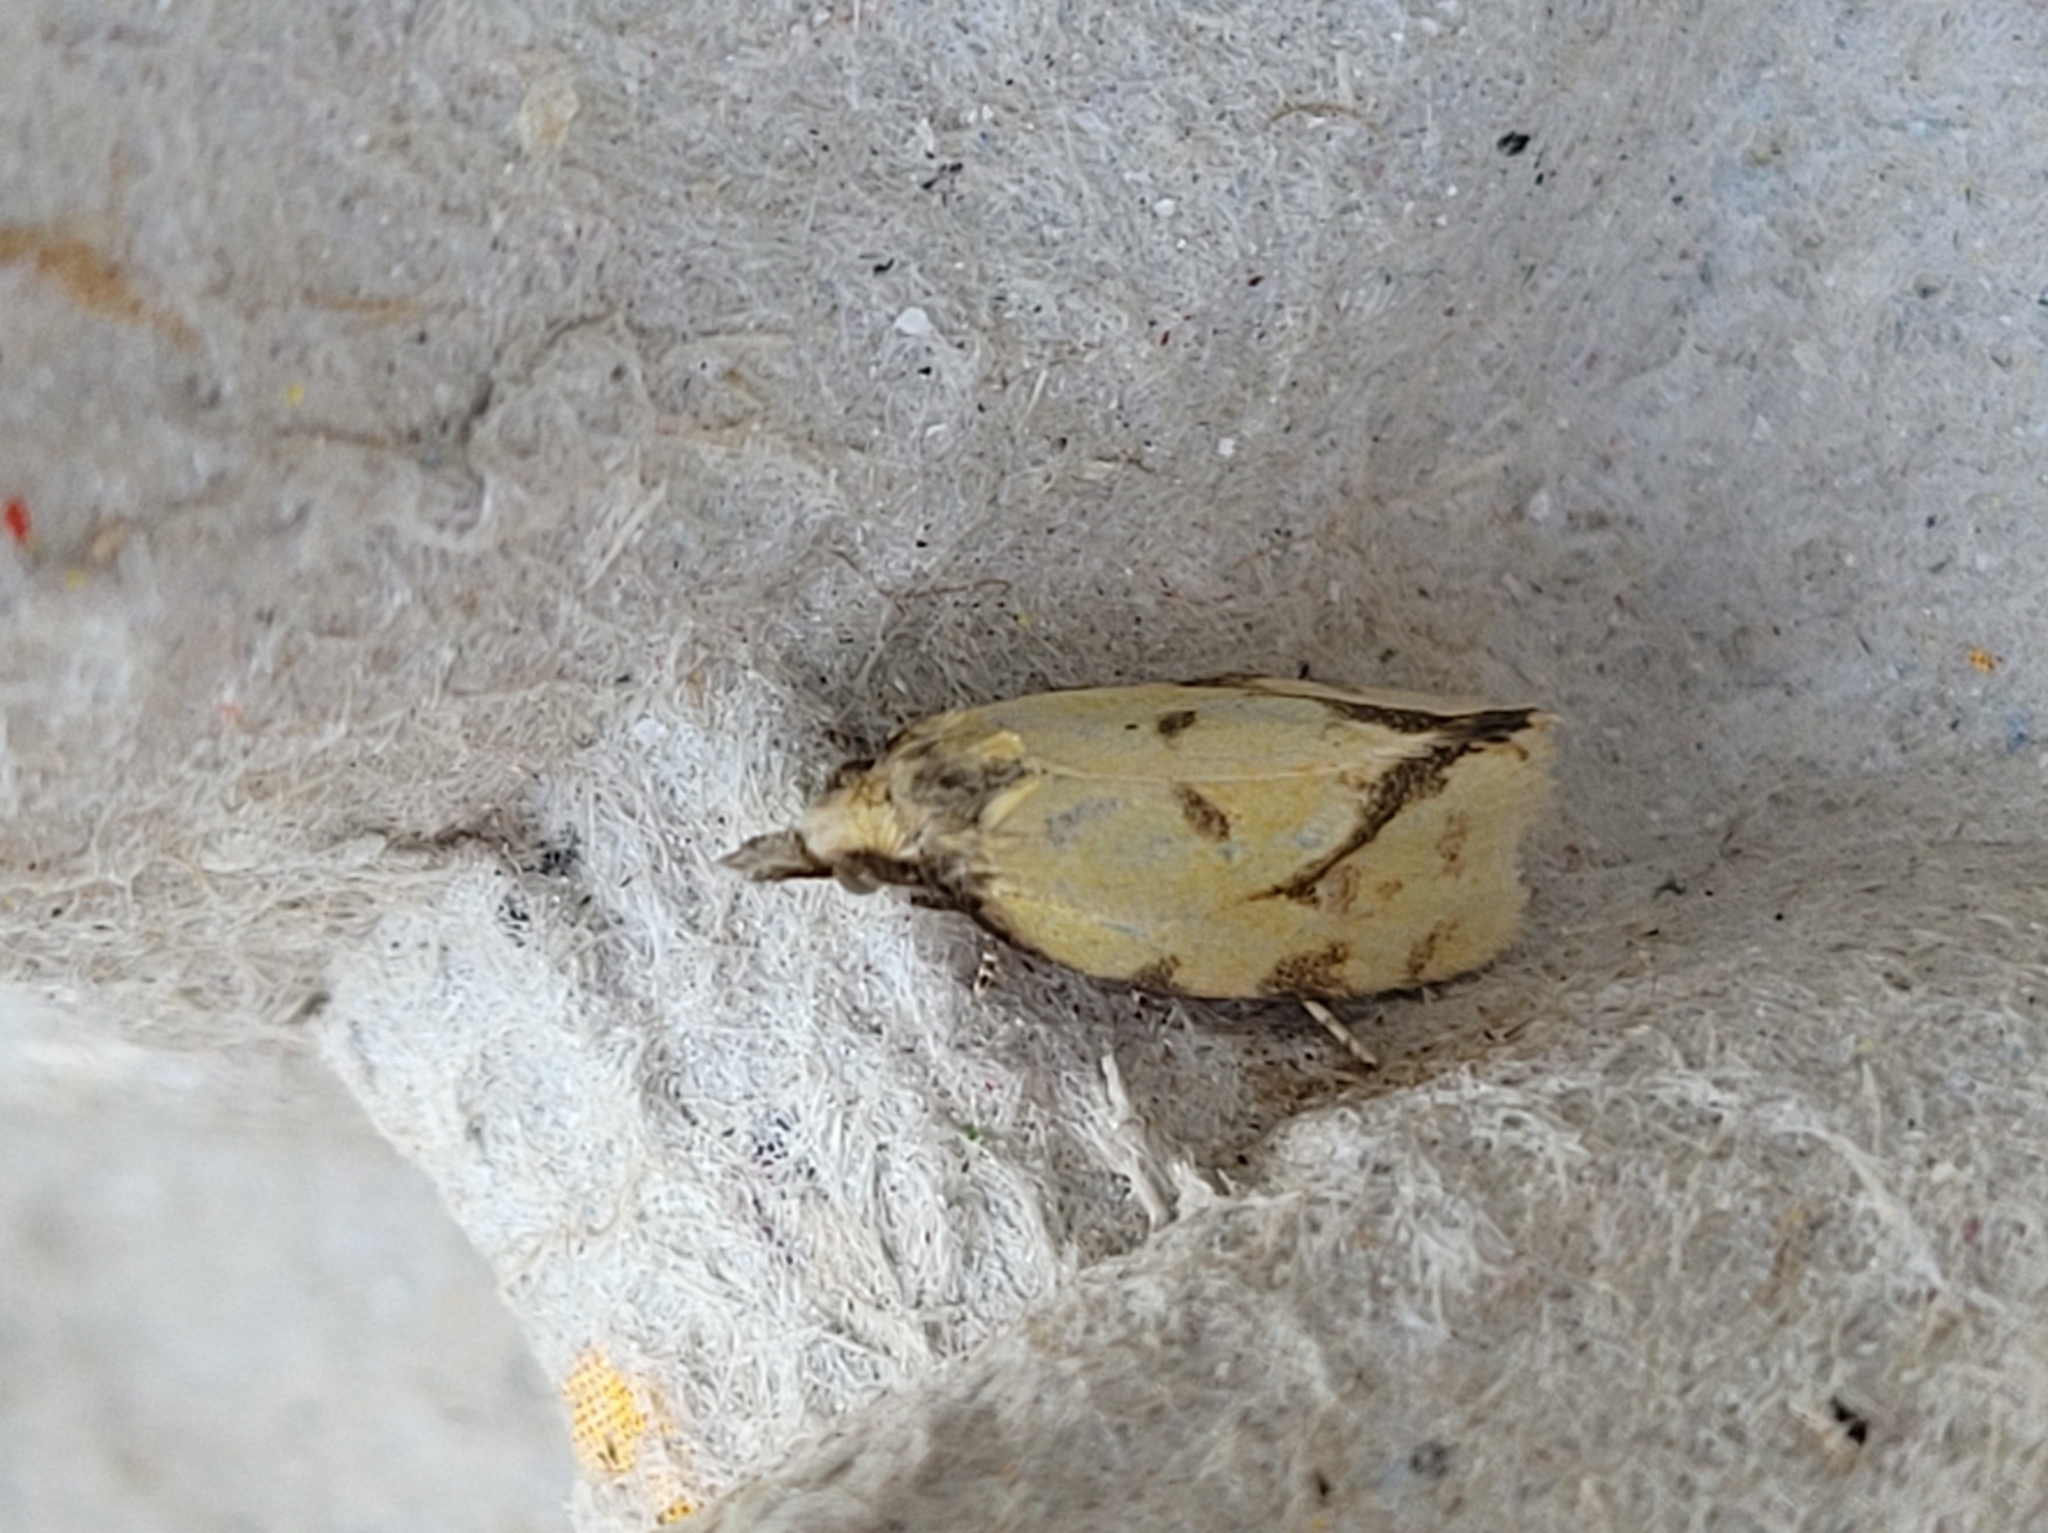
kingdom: Animalia
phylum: Arthropoda
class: Insecta
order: Lepidoptera
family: Tortricidae
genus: Agapeta
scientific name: Agapeta hamana
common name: Common yellow conch
